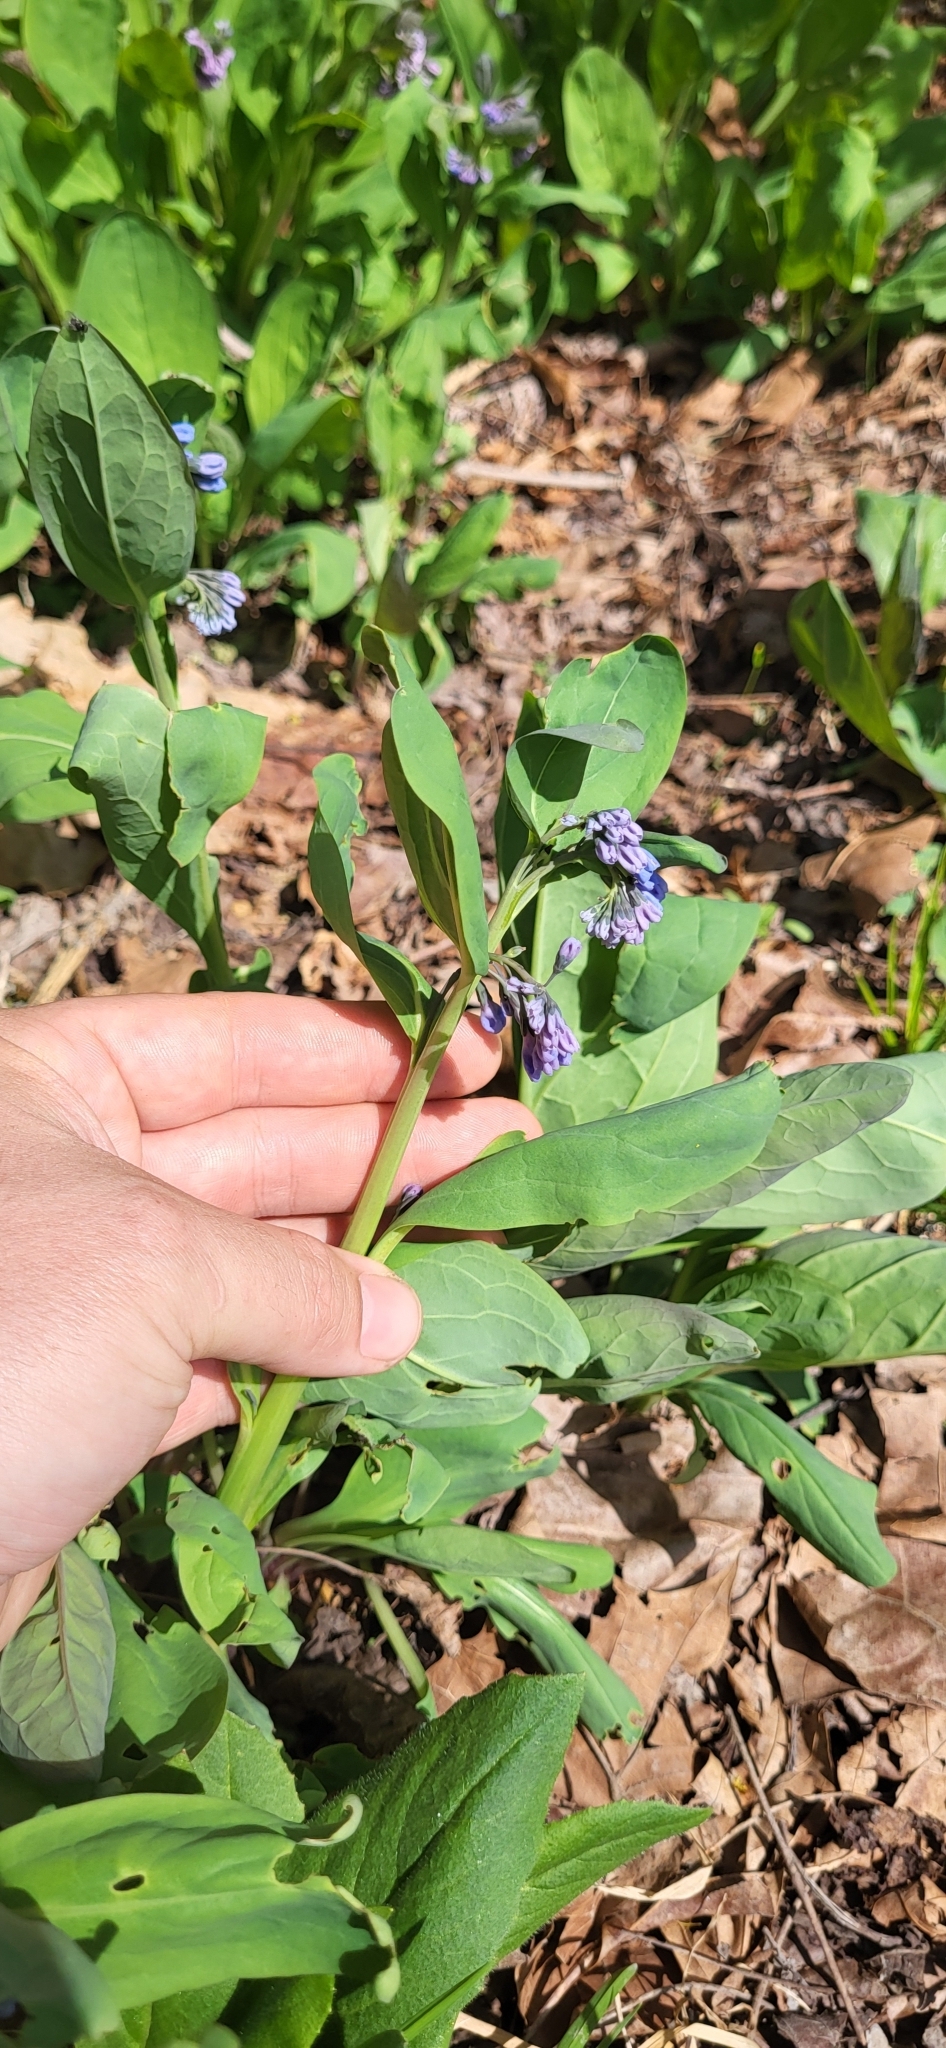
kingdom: Plantae
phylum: Tracheophyta
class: Magnoliopsida
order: Boraginales
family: Boraginaceae
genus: Mertensia
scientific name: Mertensia virginica
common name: Virginia bluebells
